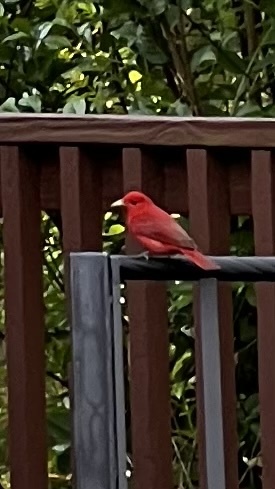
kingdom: Animalia
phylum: Chordata
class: Aves
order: Passeriformes
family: Cardinalidae
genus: Piranga
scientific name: Piranga rubra
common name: Summer tanager
